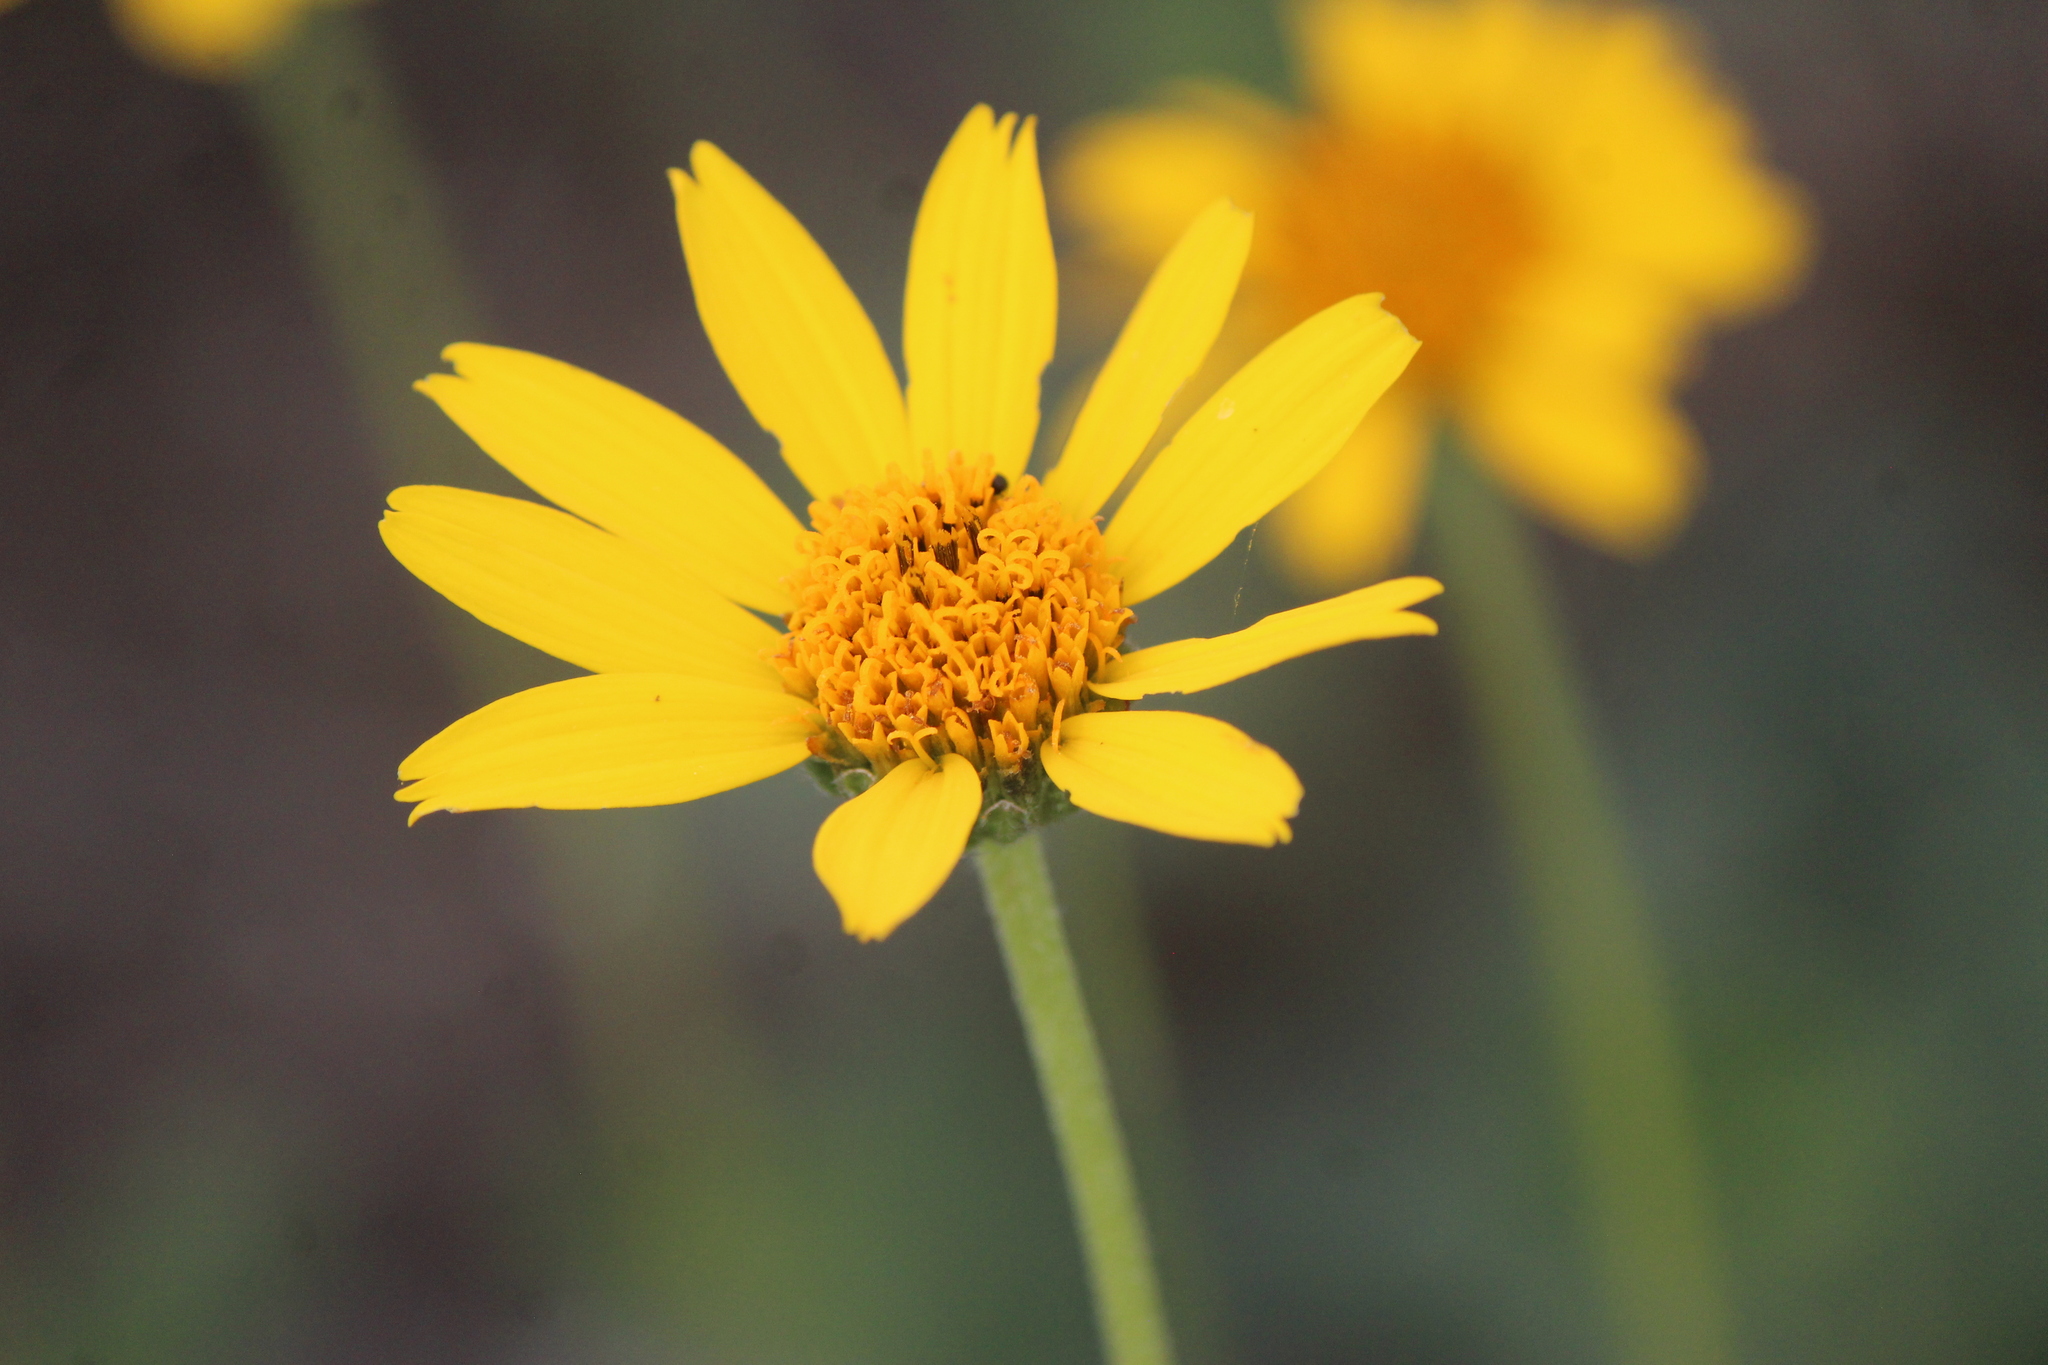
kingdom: Plantae
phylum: Tracheophyta
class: Magnoliopsida
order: Asterales
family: Asteraceae
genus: Verbesina
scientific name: Verbesina pedunculosa
